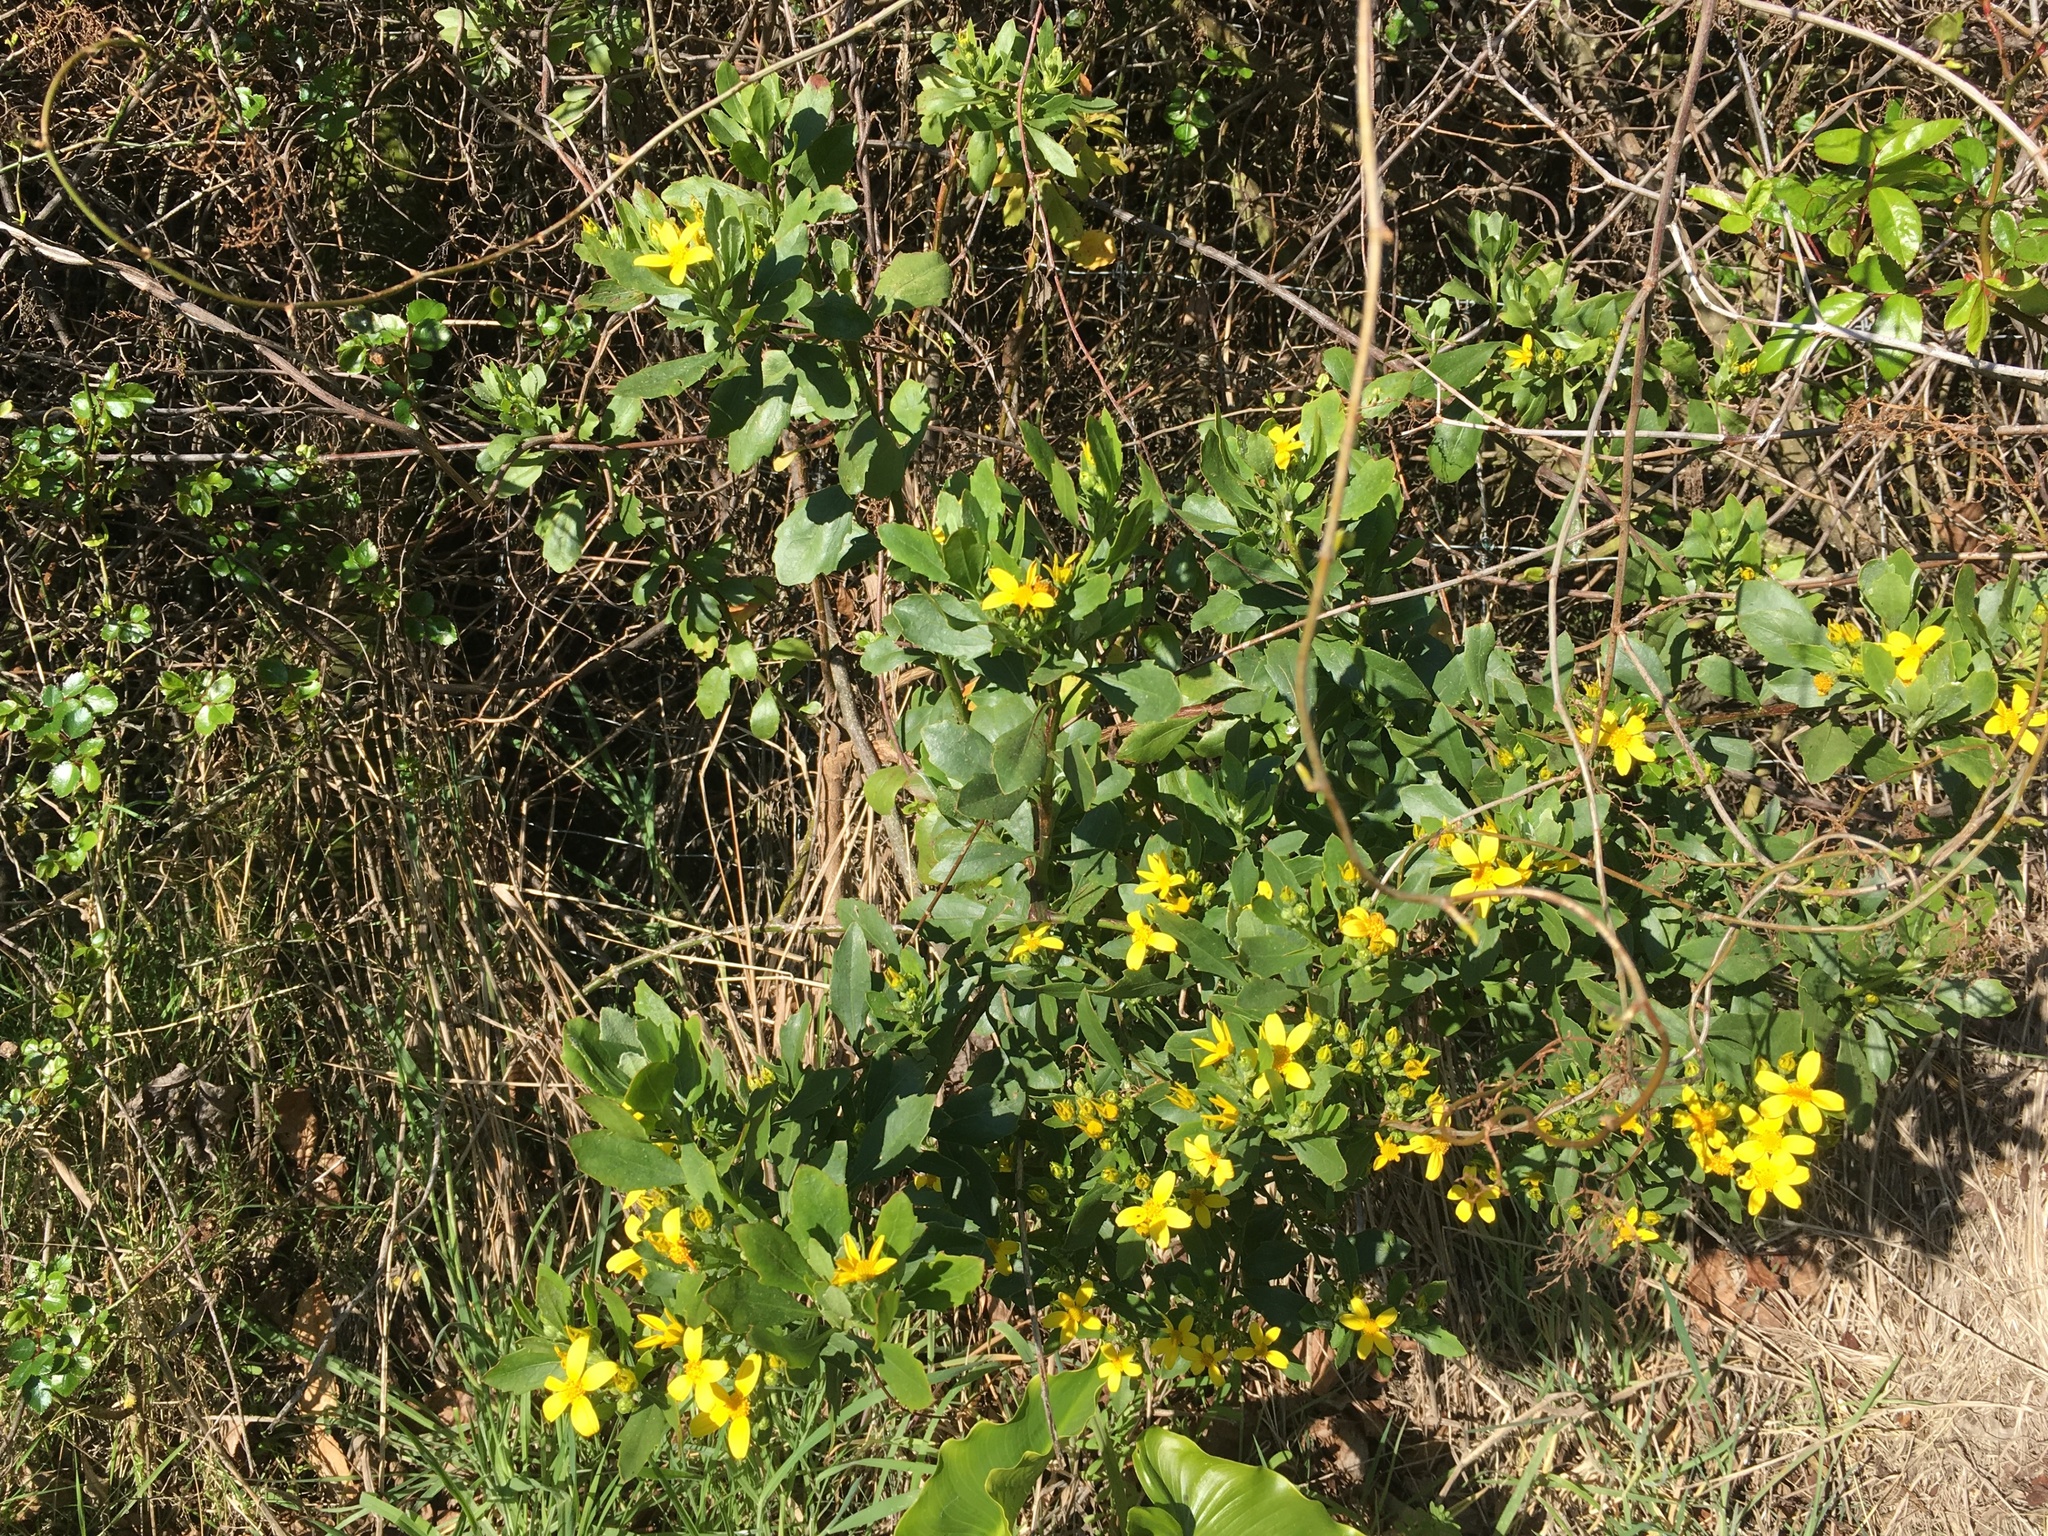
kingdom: Plantae
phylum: Tracheophyta
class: Magnoliopsida
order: Asterales
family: Asteraceae
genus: Osteospermum
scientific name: Osteospermum moniliferum
